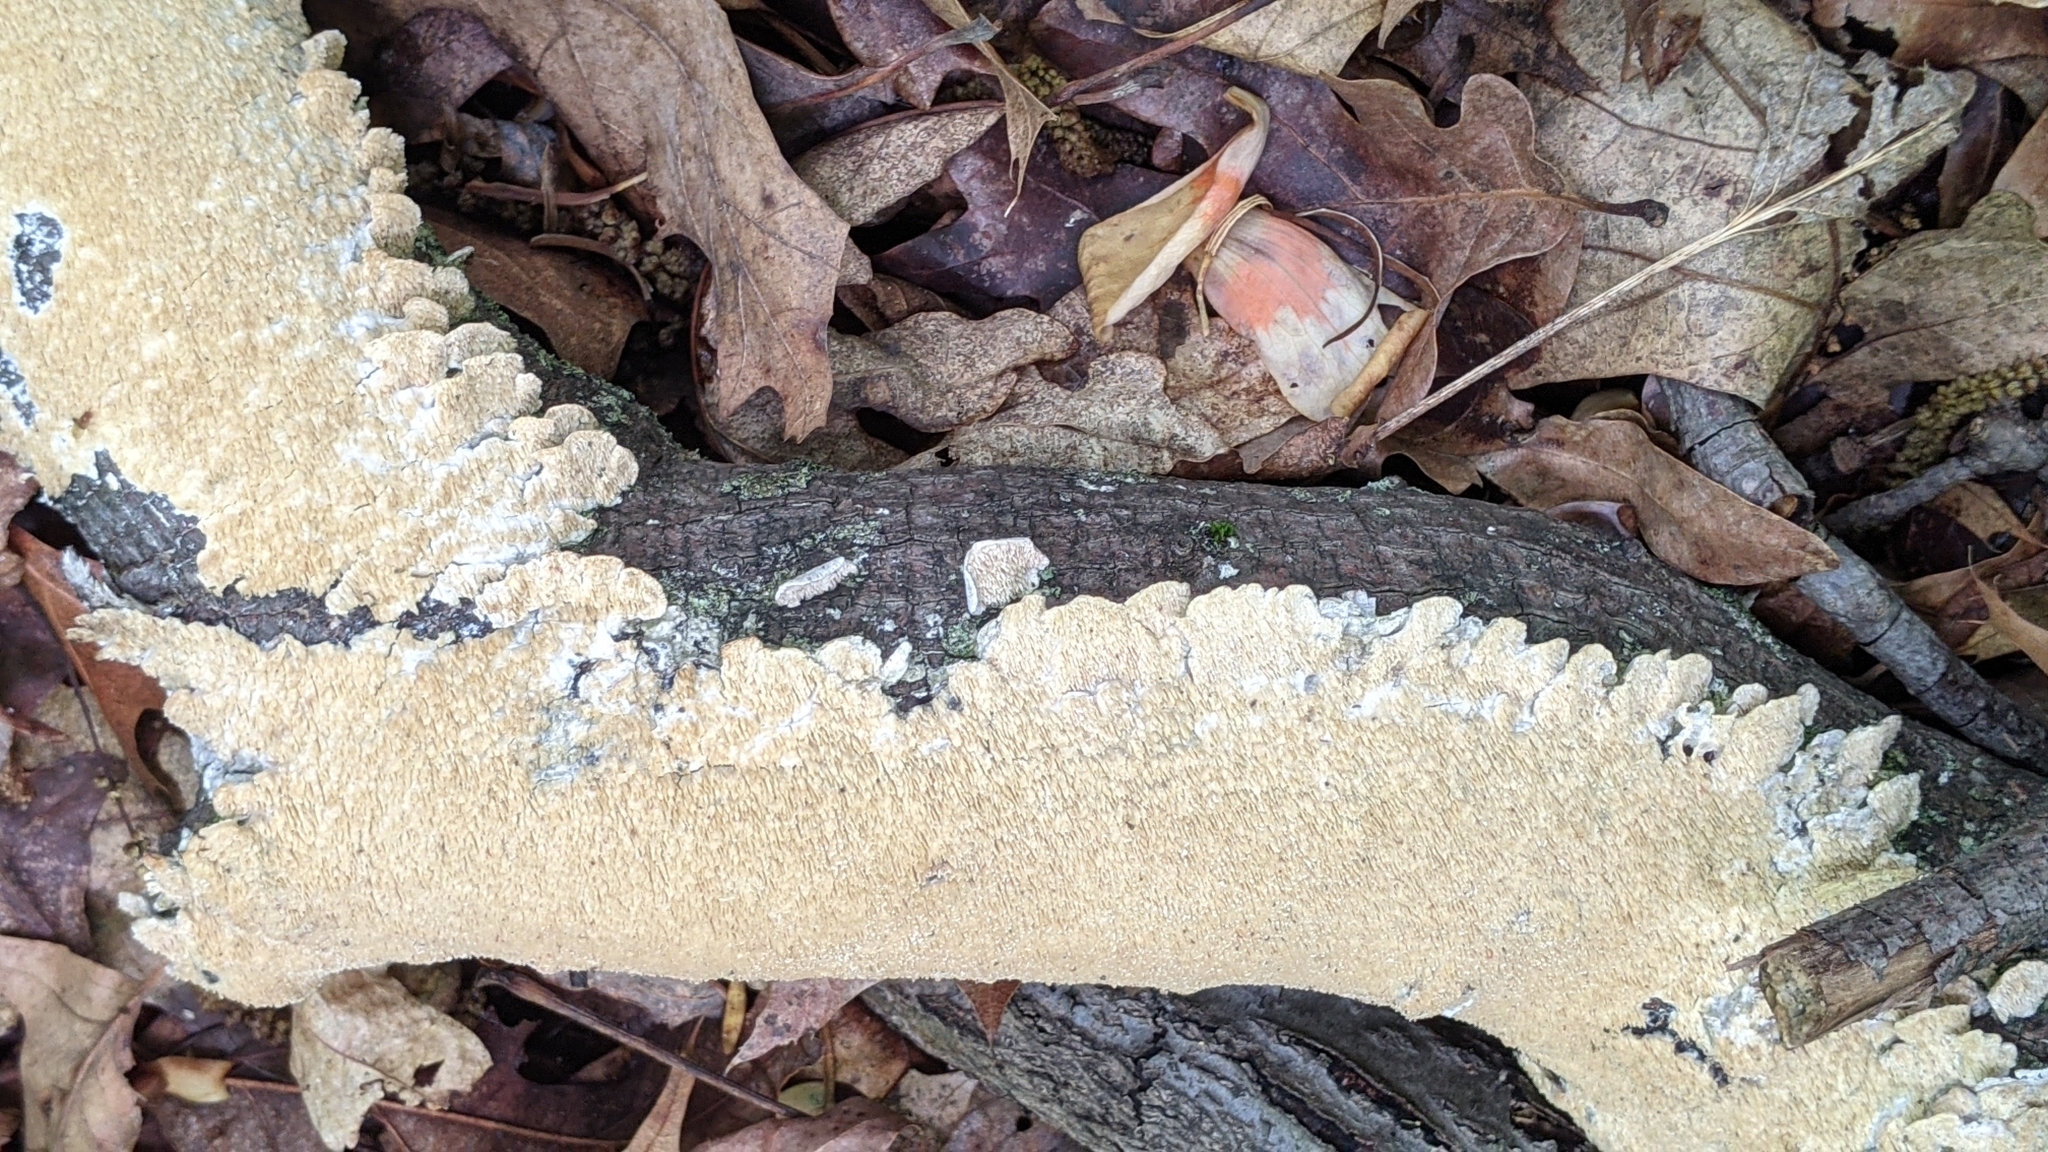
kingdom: Fungi
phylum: Basidiomycota
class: Agaricomycetes
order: Polyporales
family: Irpicaceae
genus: Irpex
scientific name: Irpex lacteus
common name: Milk-white toothed polypore
